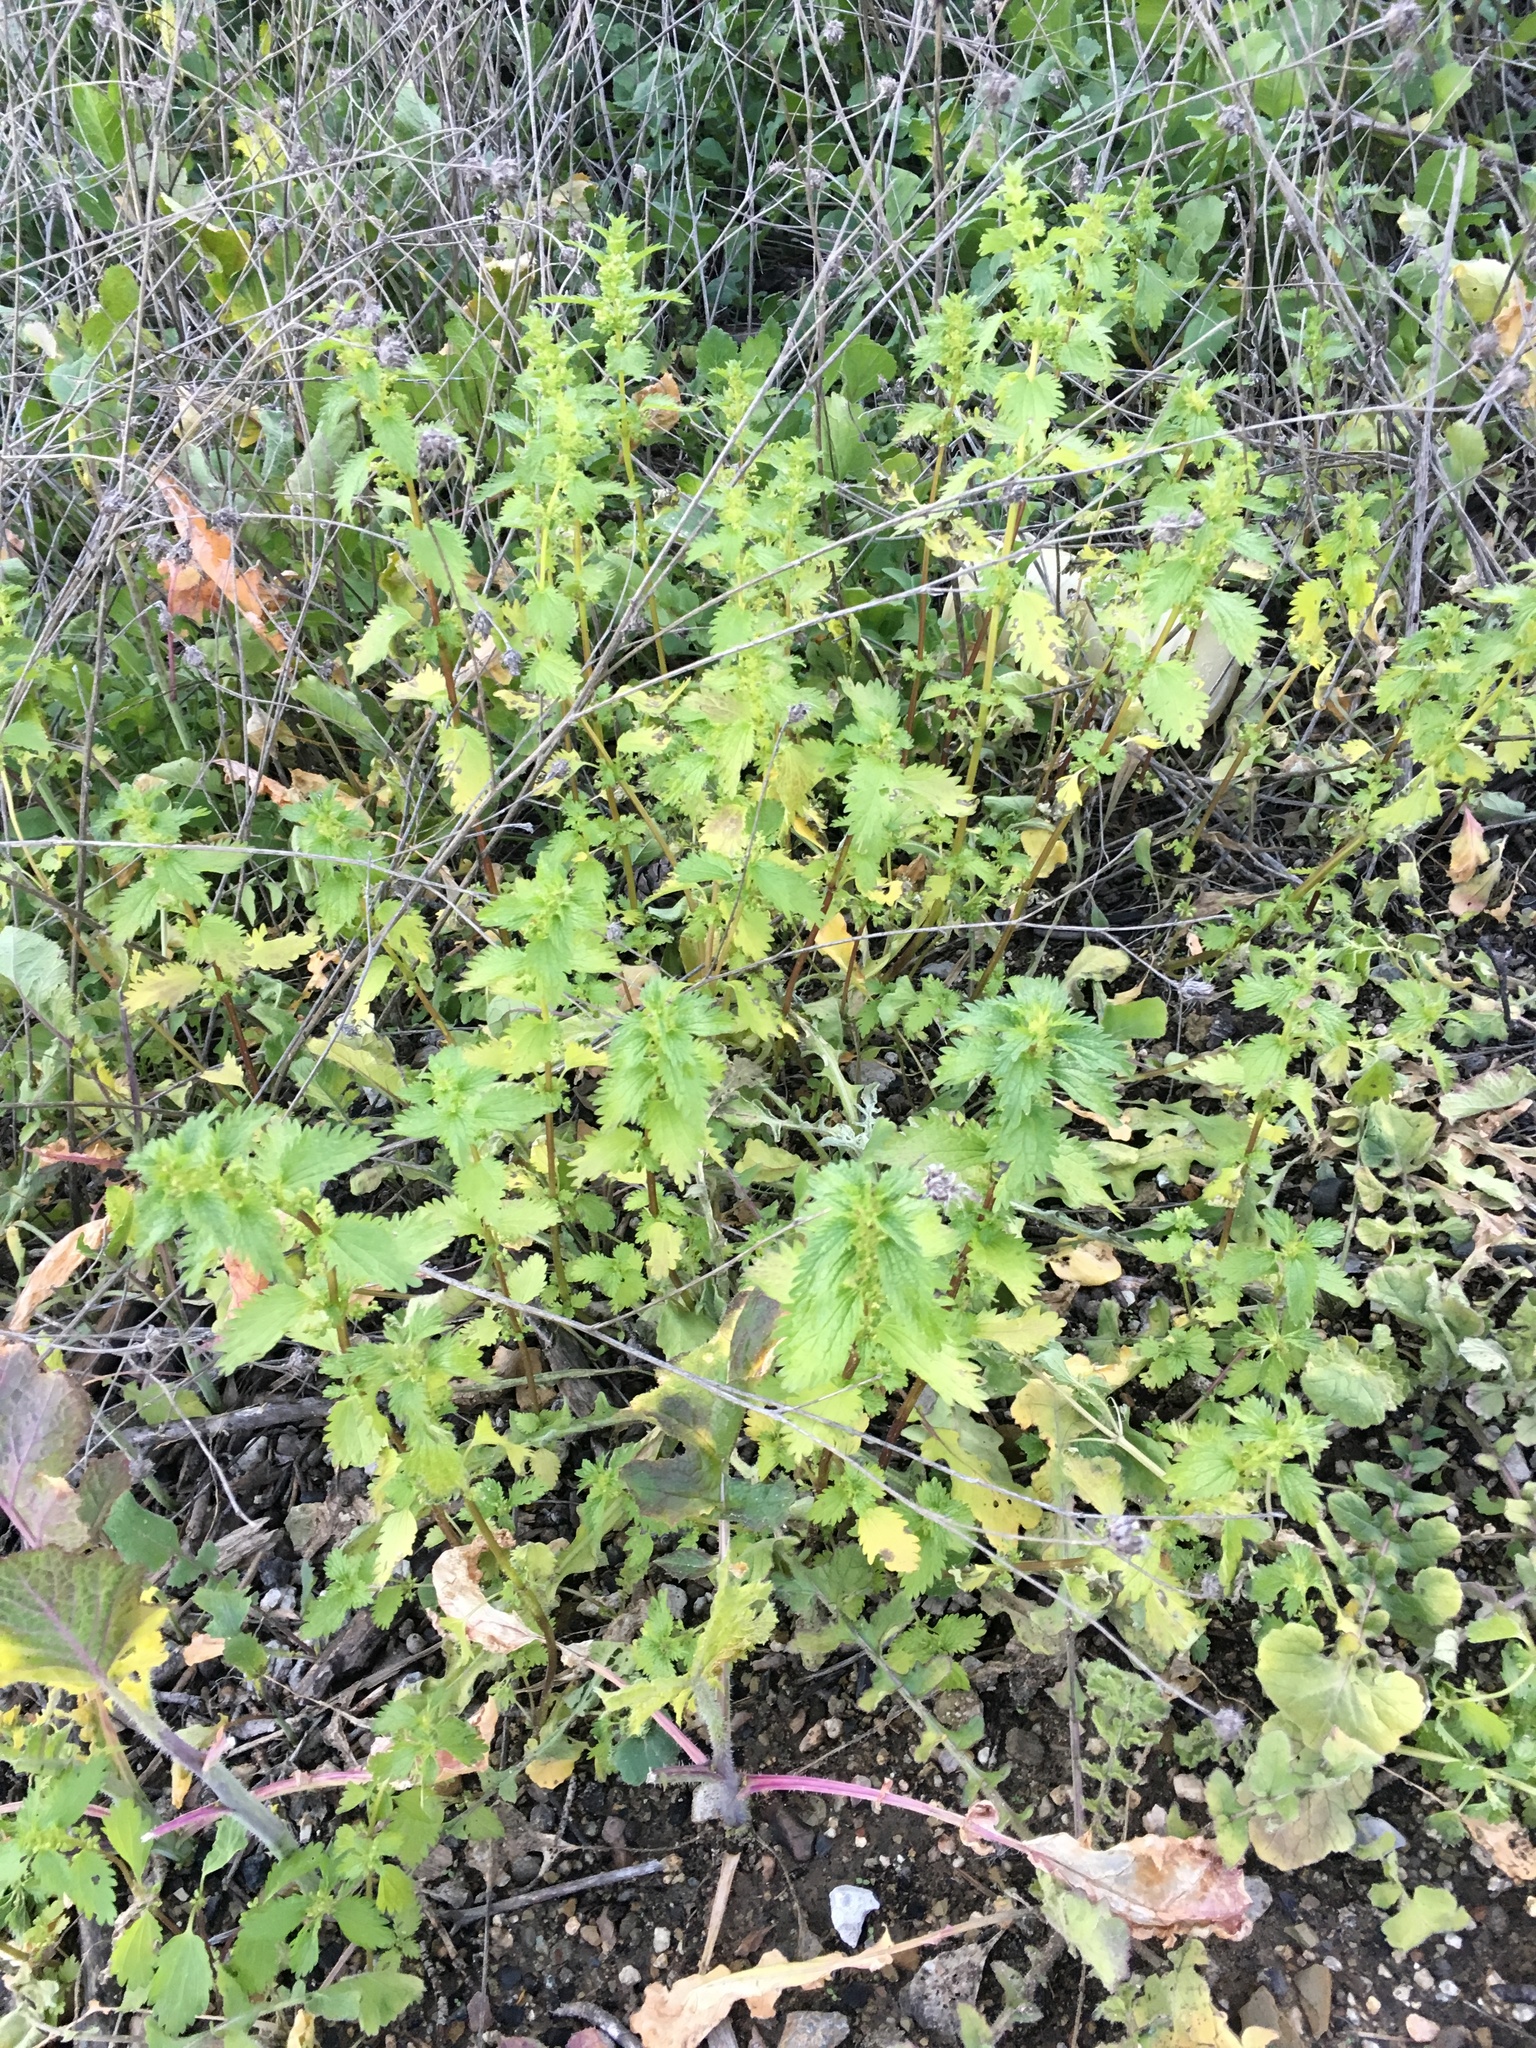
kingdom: Plantae
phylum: Tracheophyta
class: Magnoliopsida
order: Rosales
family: Urticaceae
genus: Urtica
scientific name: Urtica urens
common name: Dwarf nettle
